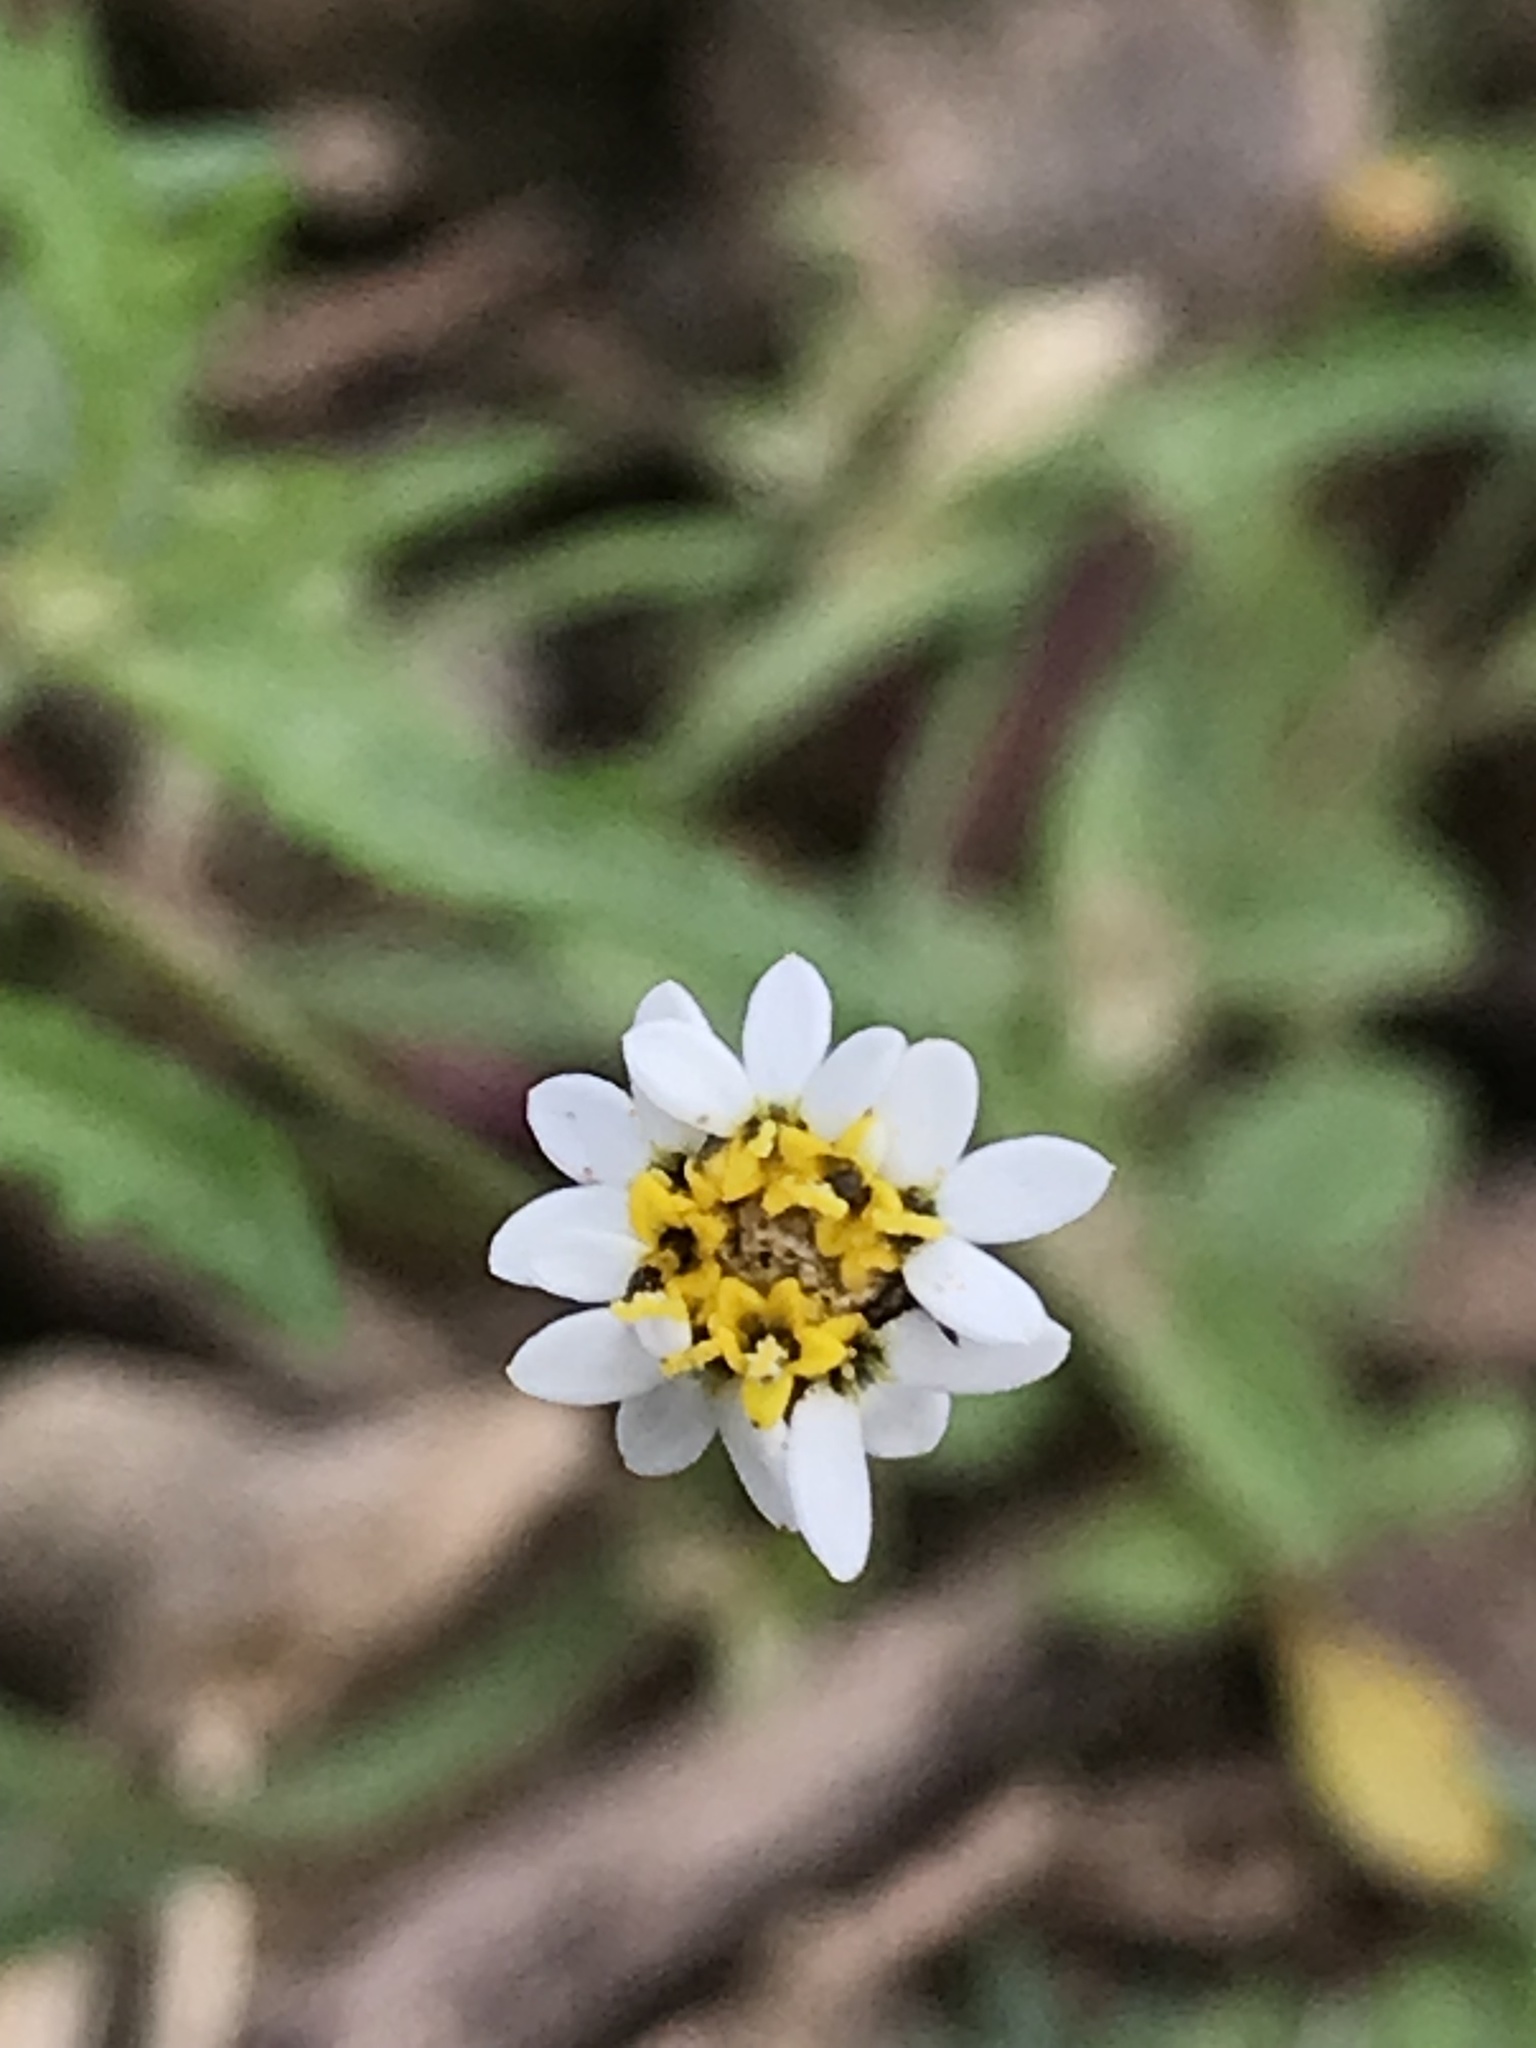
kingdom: Plantae
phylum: Tracheophyta
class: Magnoliopsida
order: Asterales
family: Asteraceae
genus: Tridax
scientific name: Tridax coronopifolia
